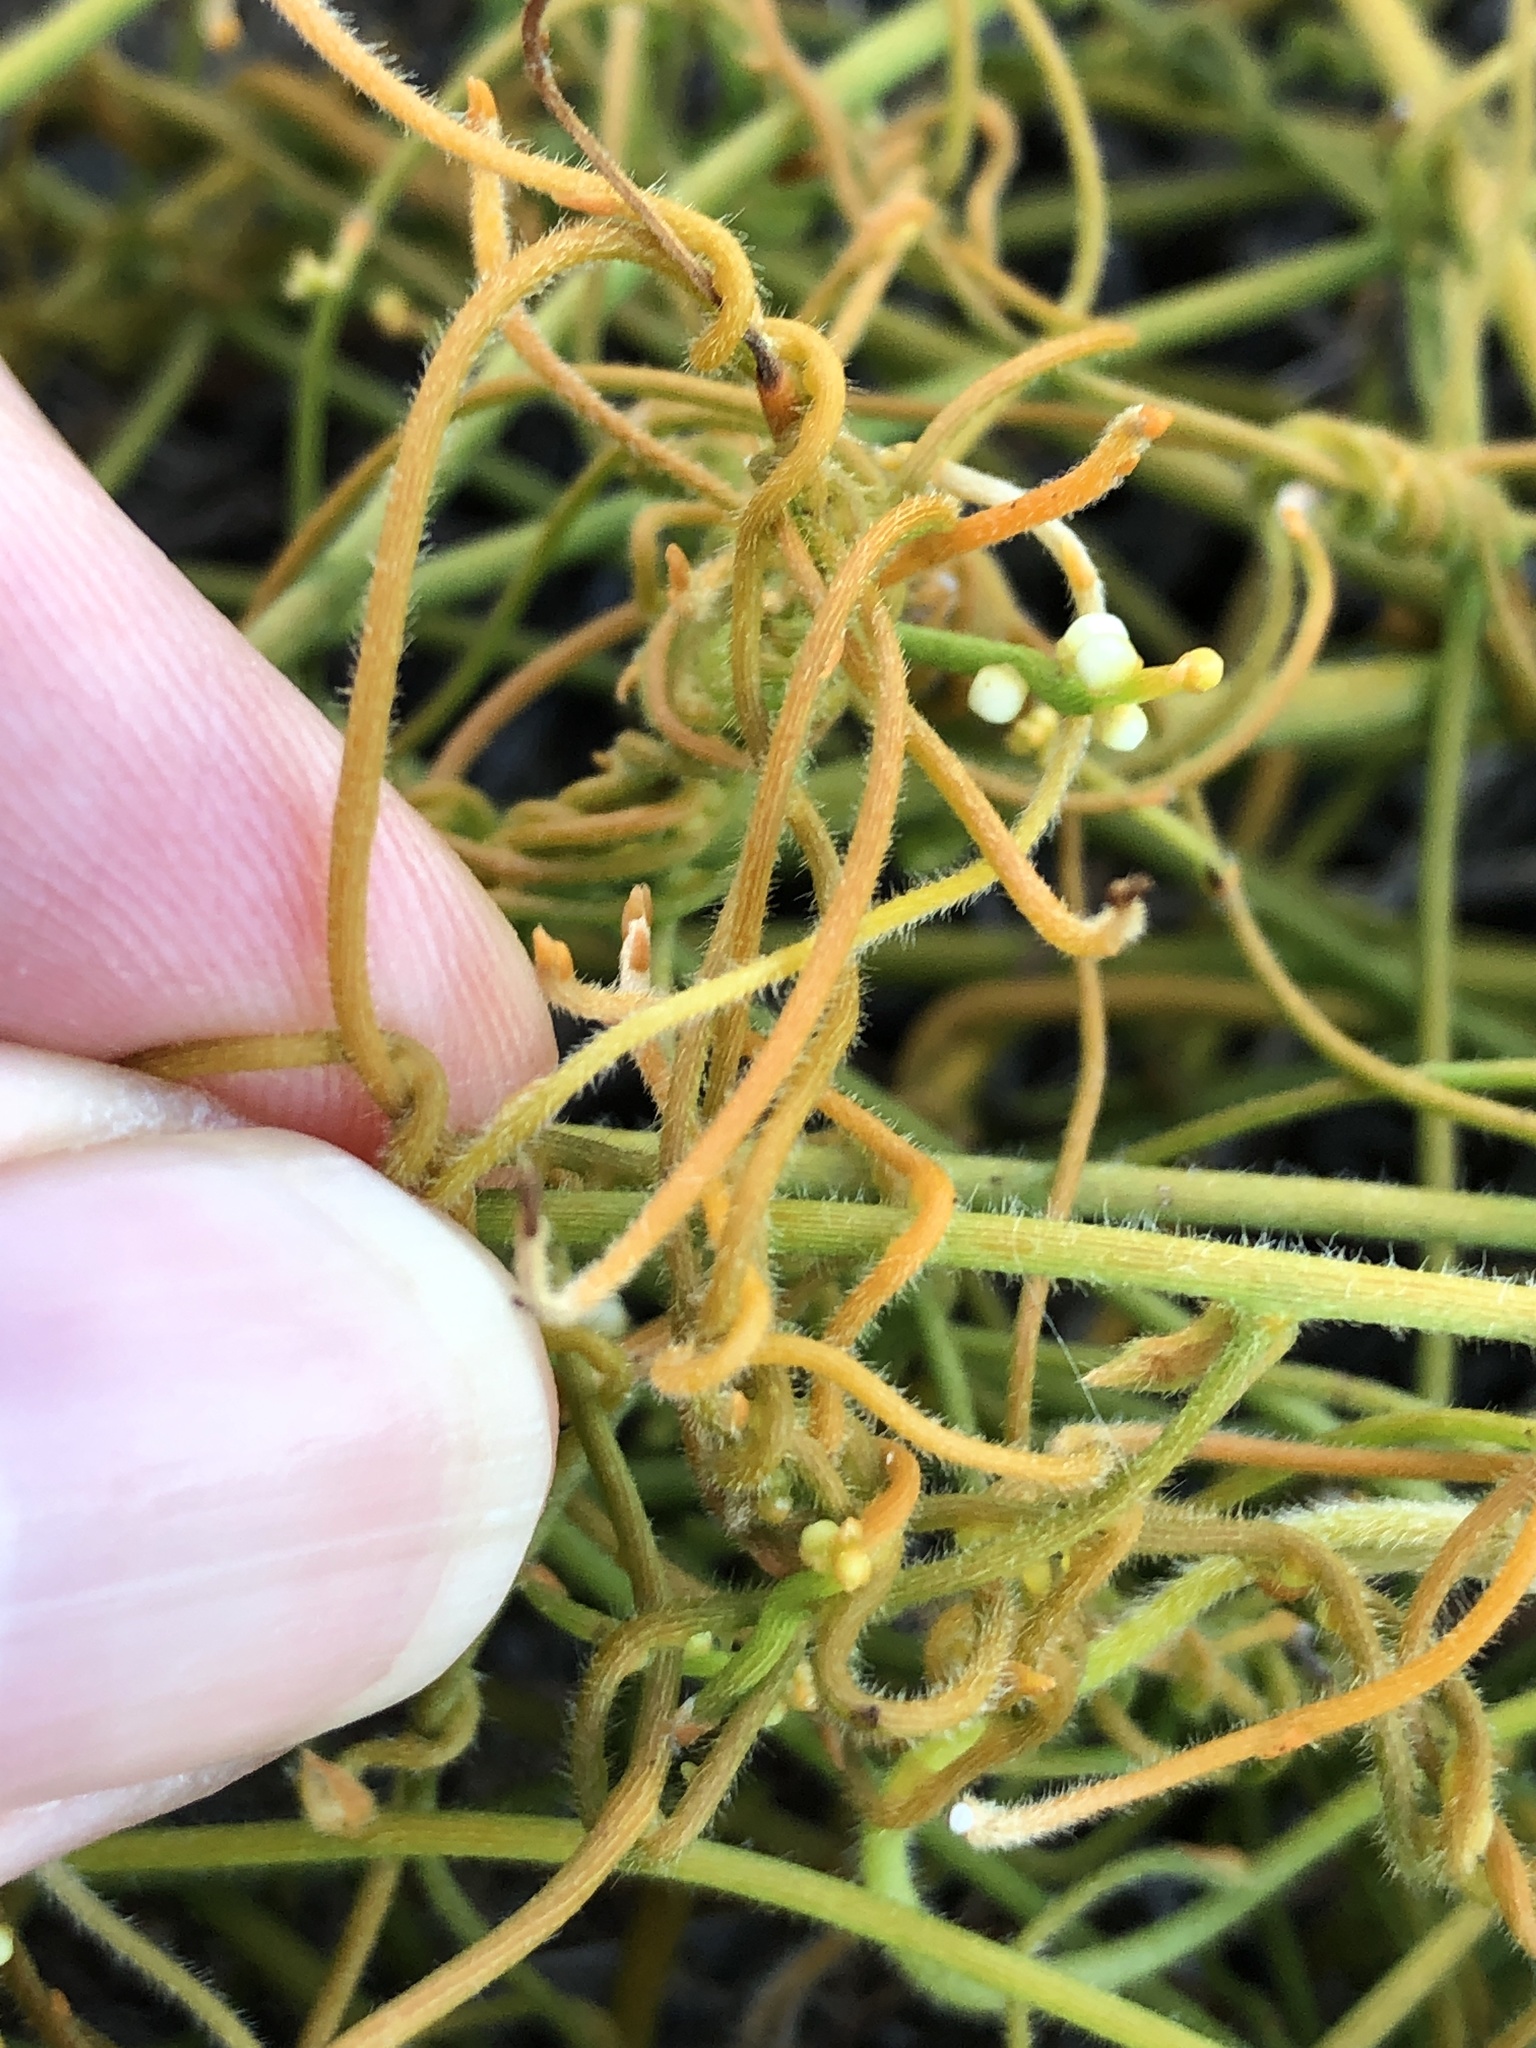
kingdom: Plantae
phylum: Tracheophyta
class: Magnoliopsida
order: Laurales
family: Lauraceae
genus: Cassytha
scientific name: Cassytha filiformis
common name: Dodder-laurel
